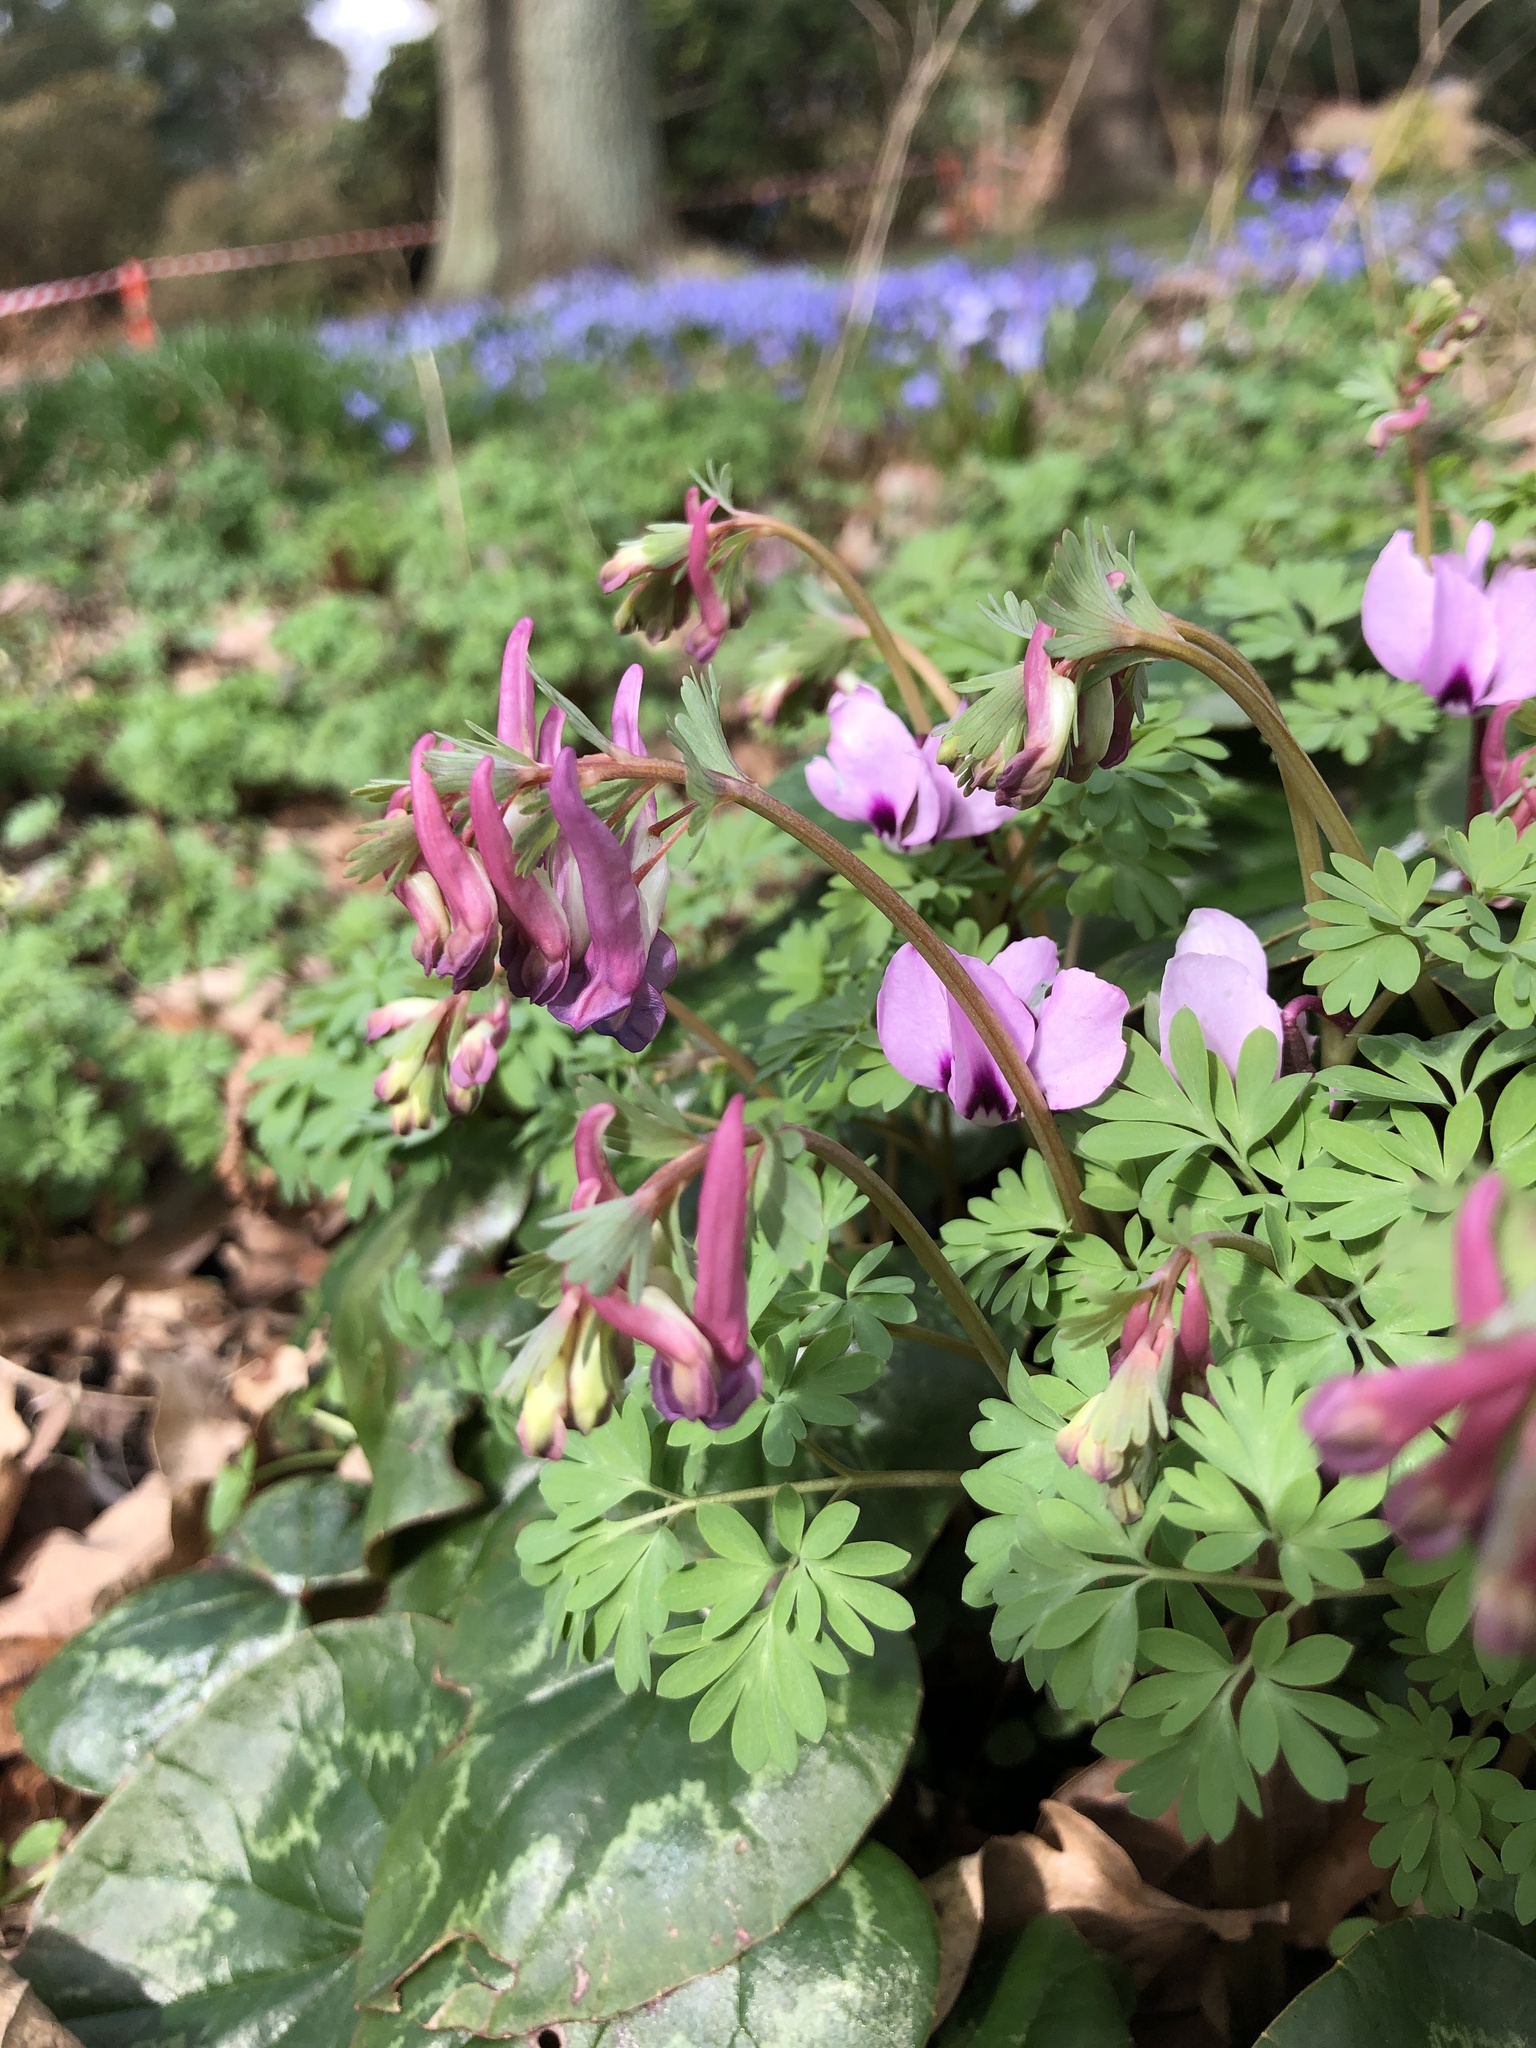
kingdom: Plantae
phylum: Tracheophyta
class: Magnoliopsida
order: Ranunculales
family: Papaveraceae
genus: Corydalis
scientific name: Corydalis solida
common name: Bird-in-a-bush
